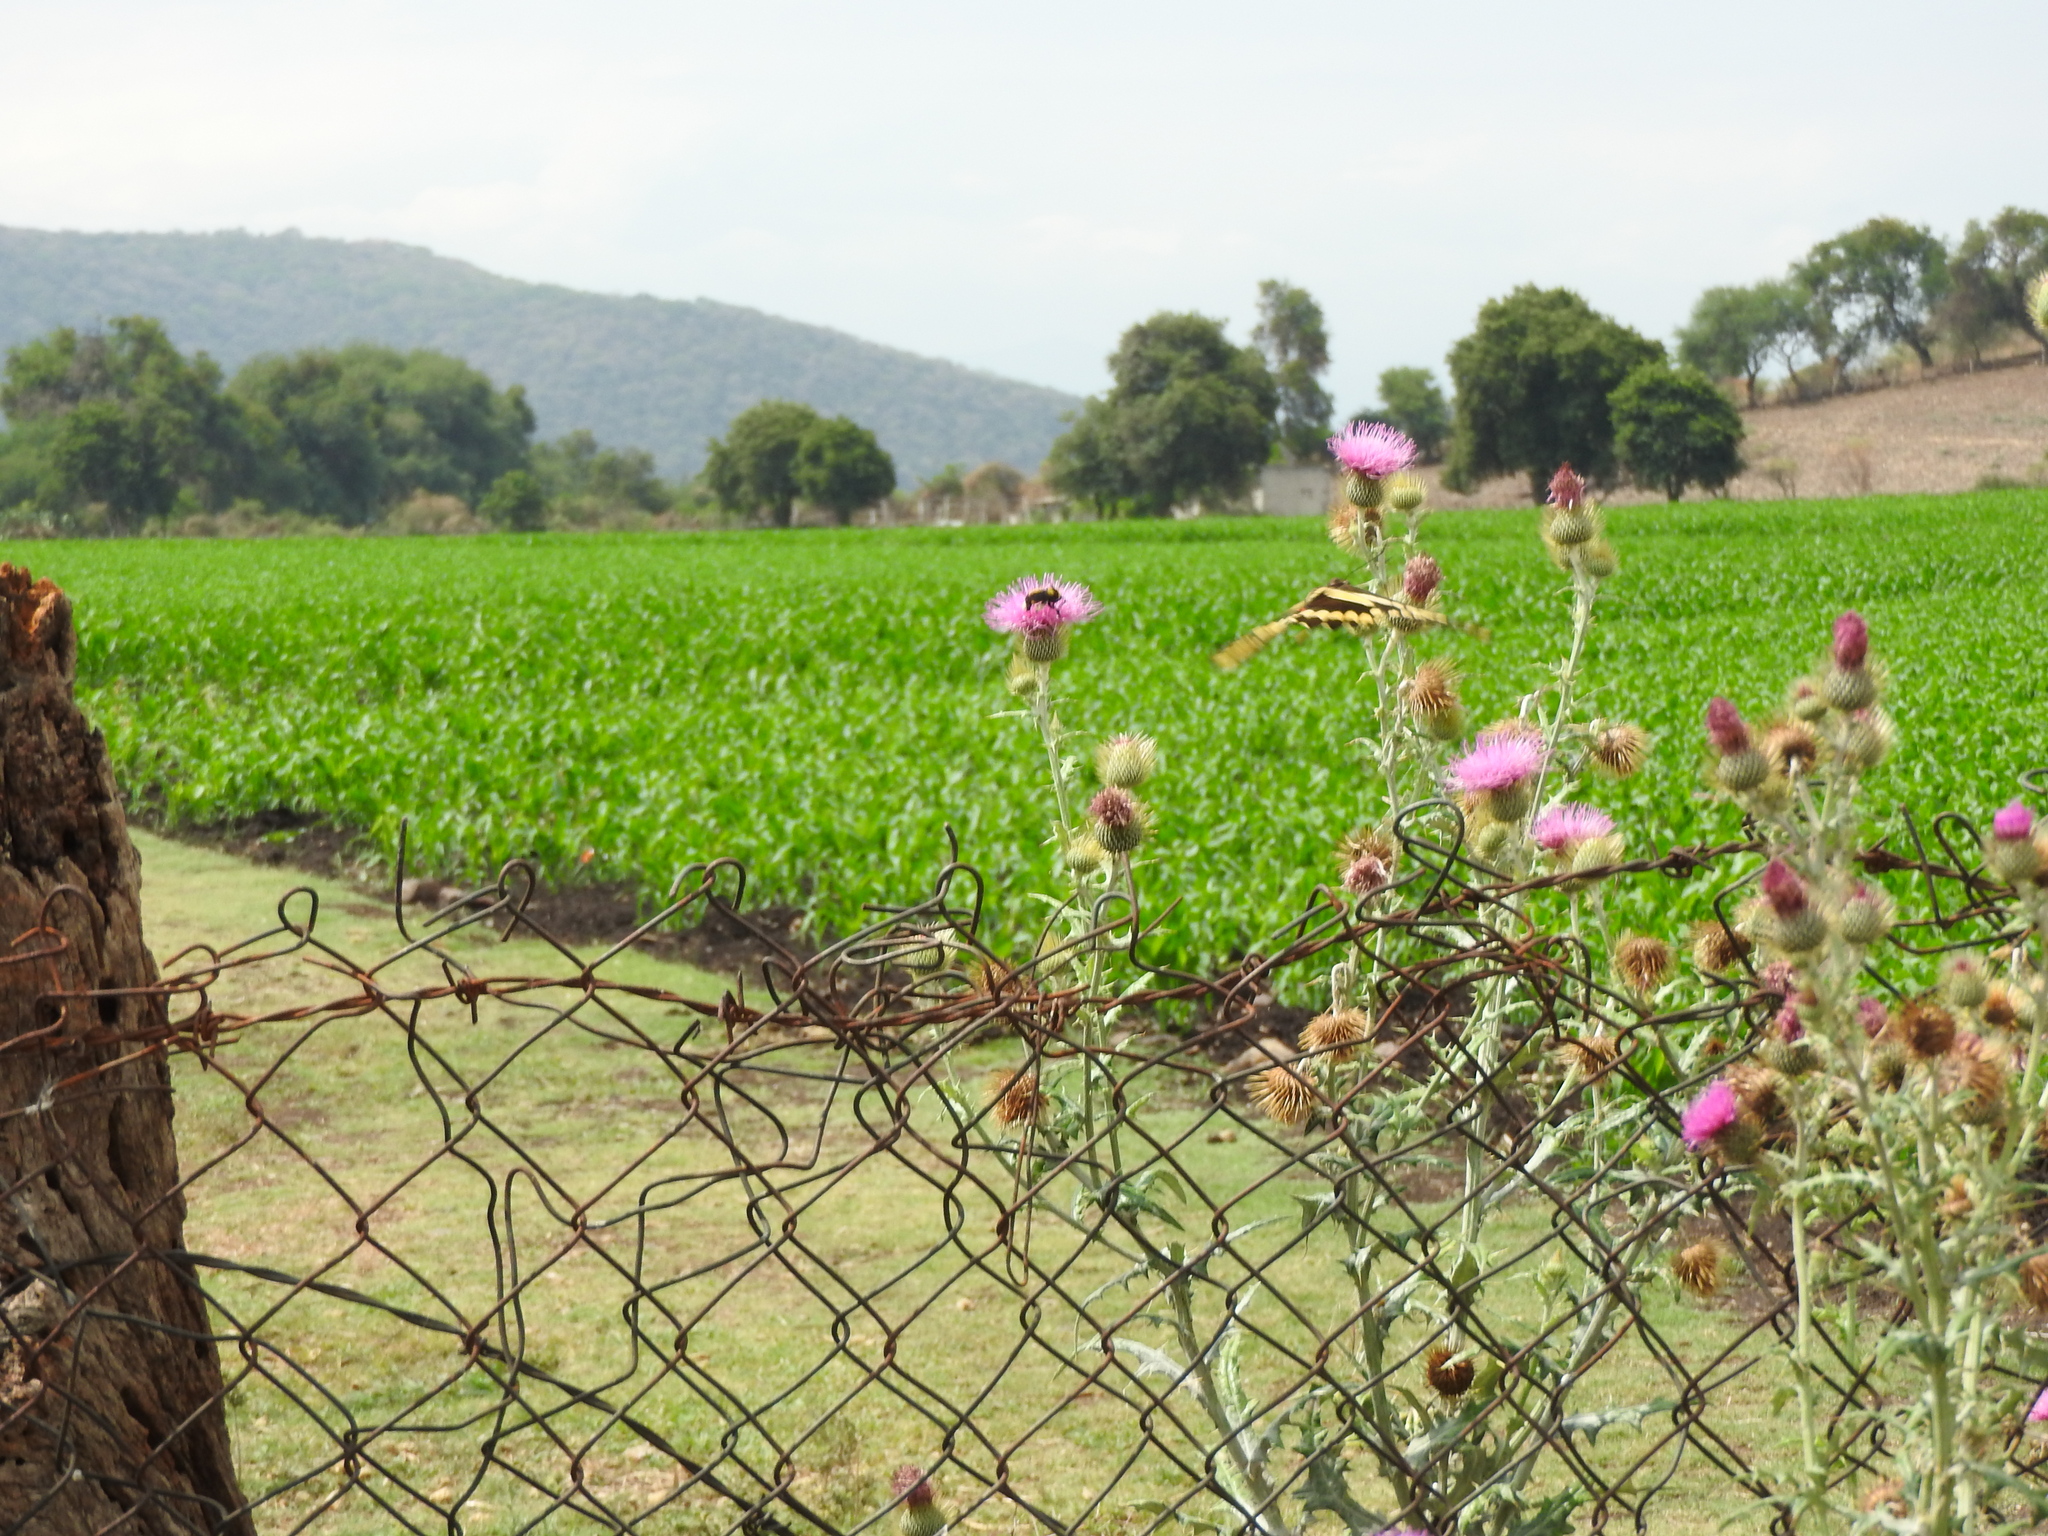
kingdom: Animalia
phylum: Arthropoda
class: Insecta
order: Lepidoptera
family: Papilionidae
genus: Papilio
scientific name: Papilio rumiko
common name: Western giant swallowtail
